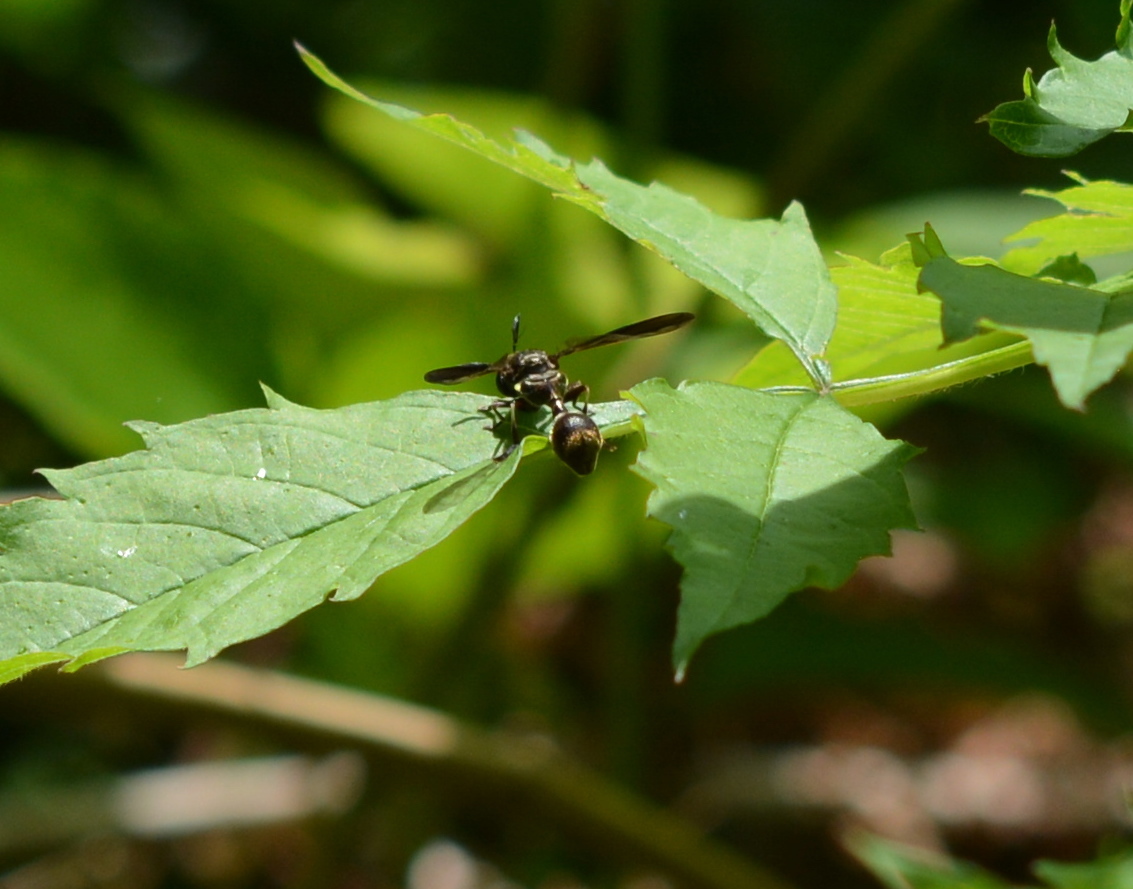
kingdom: Animalia
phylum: Arthropoda
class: Insecta
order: Diptera
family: Syrphidae
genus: Rhopalosyrphus
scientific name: Rhopalosyrphus guentherii
